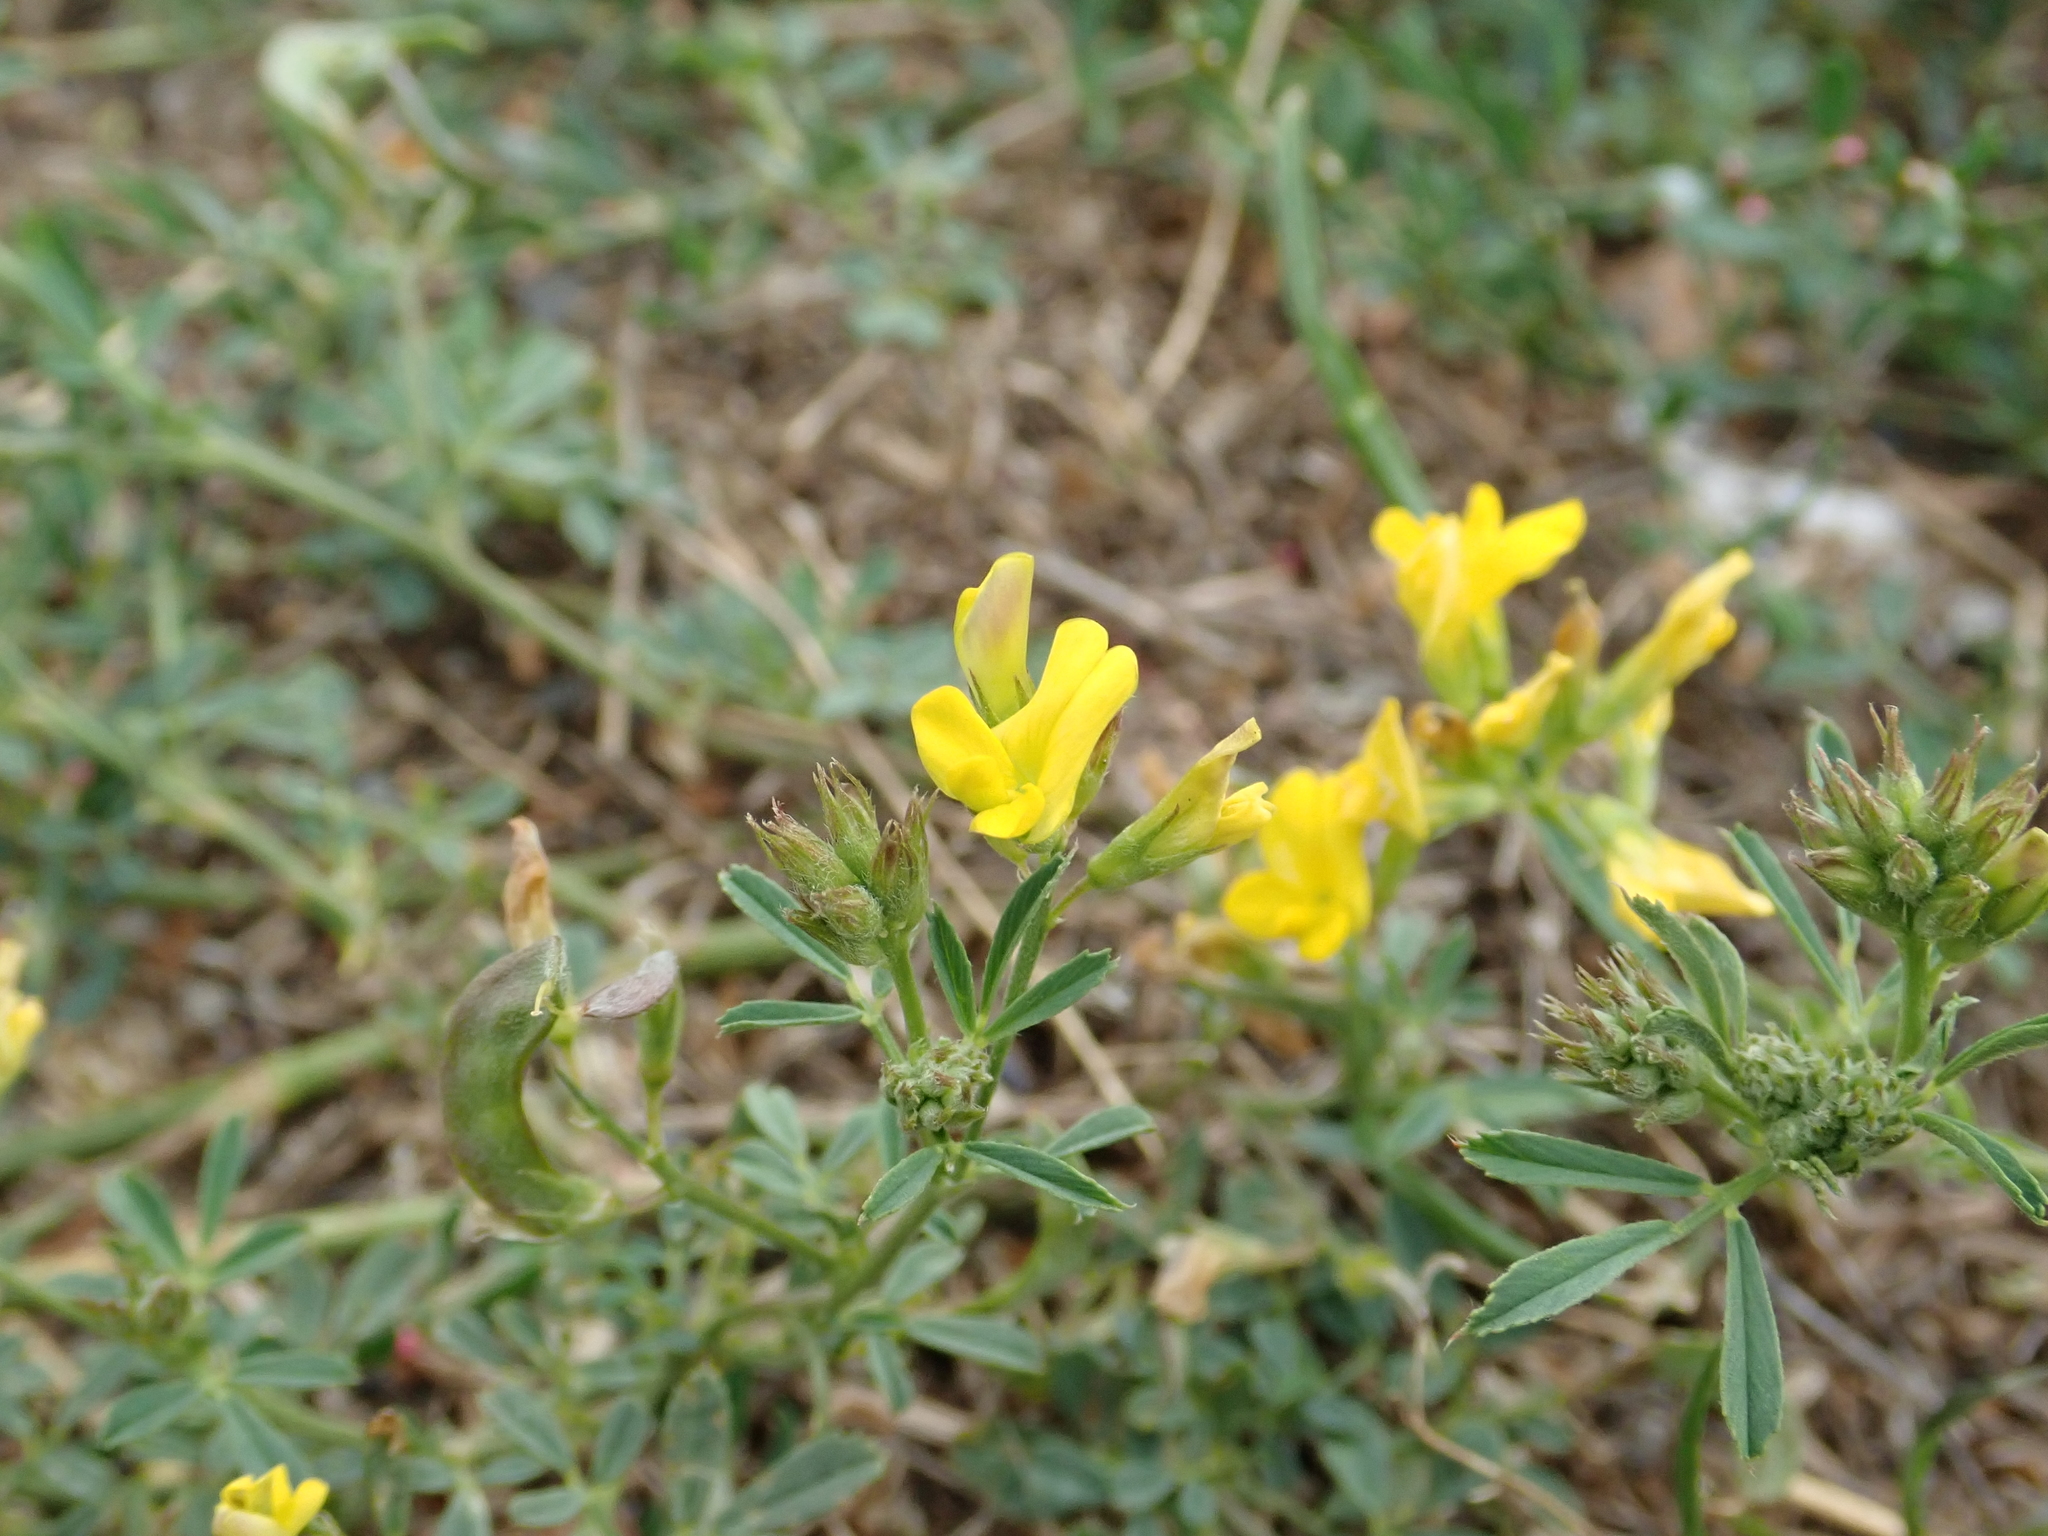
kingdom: Plantae
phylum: Tracheophyta
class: Magnoliopsida
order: Fabales
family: Fabaceae
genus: Medicago
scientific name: Medicago falcata
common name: Sickle medick
